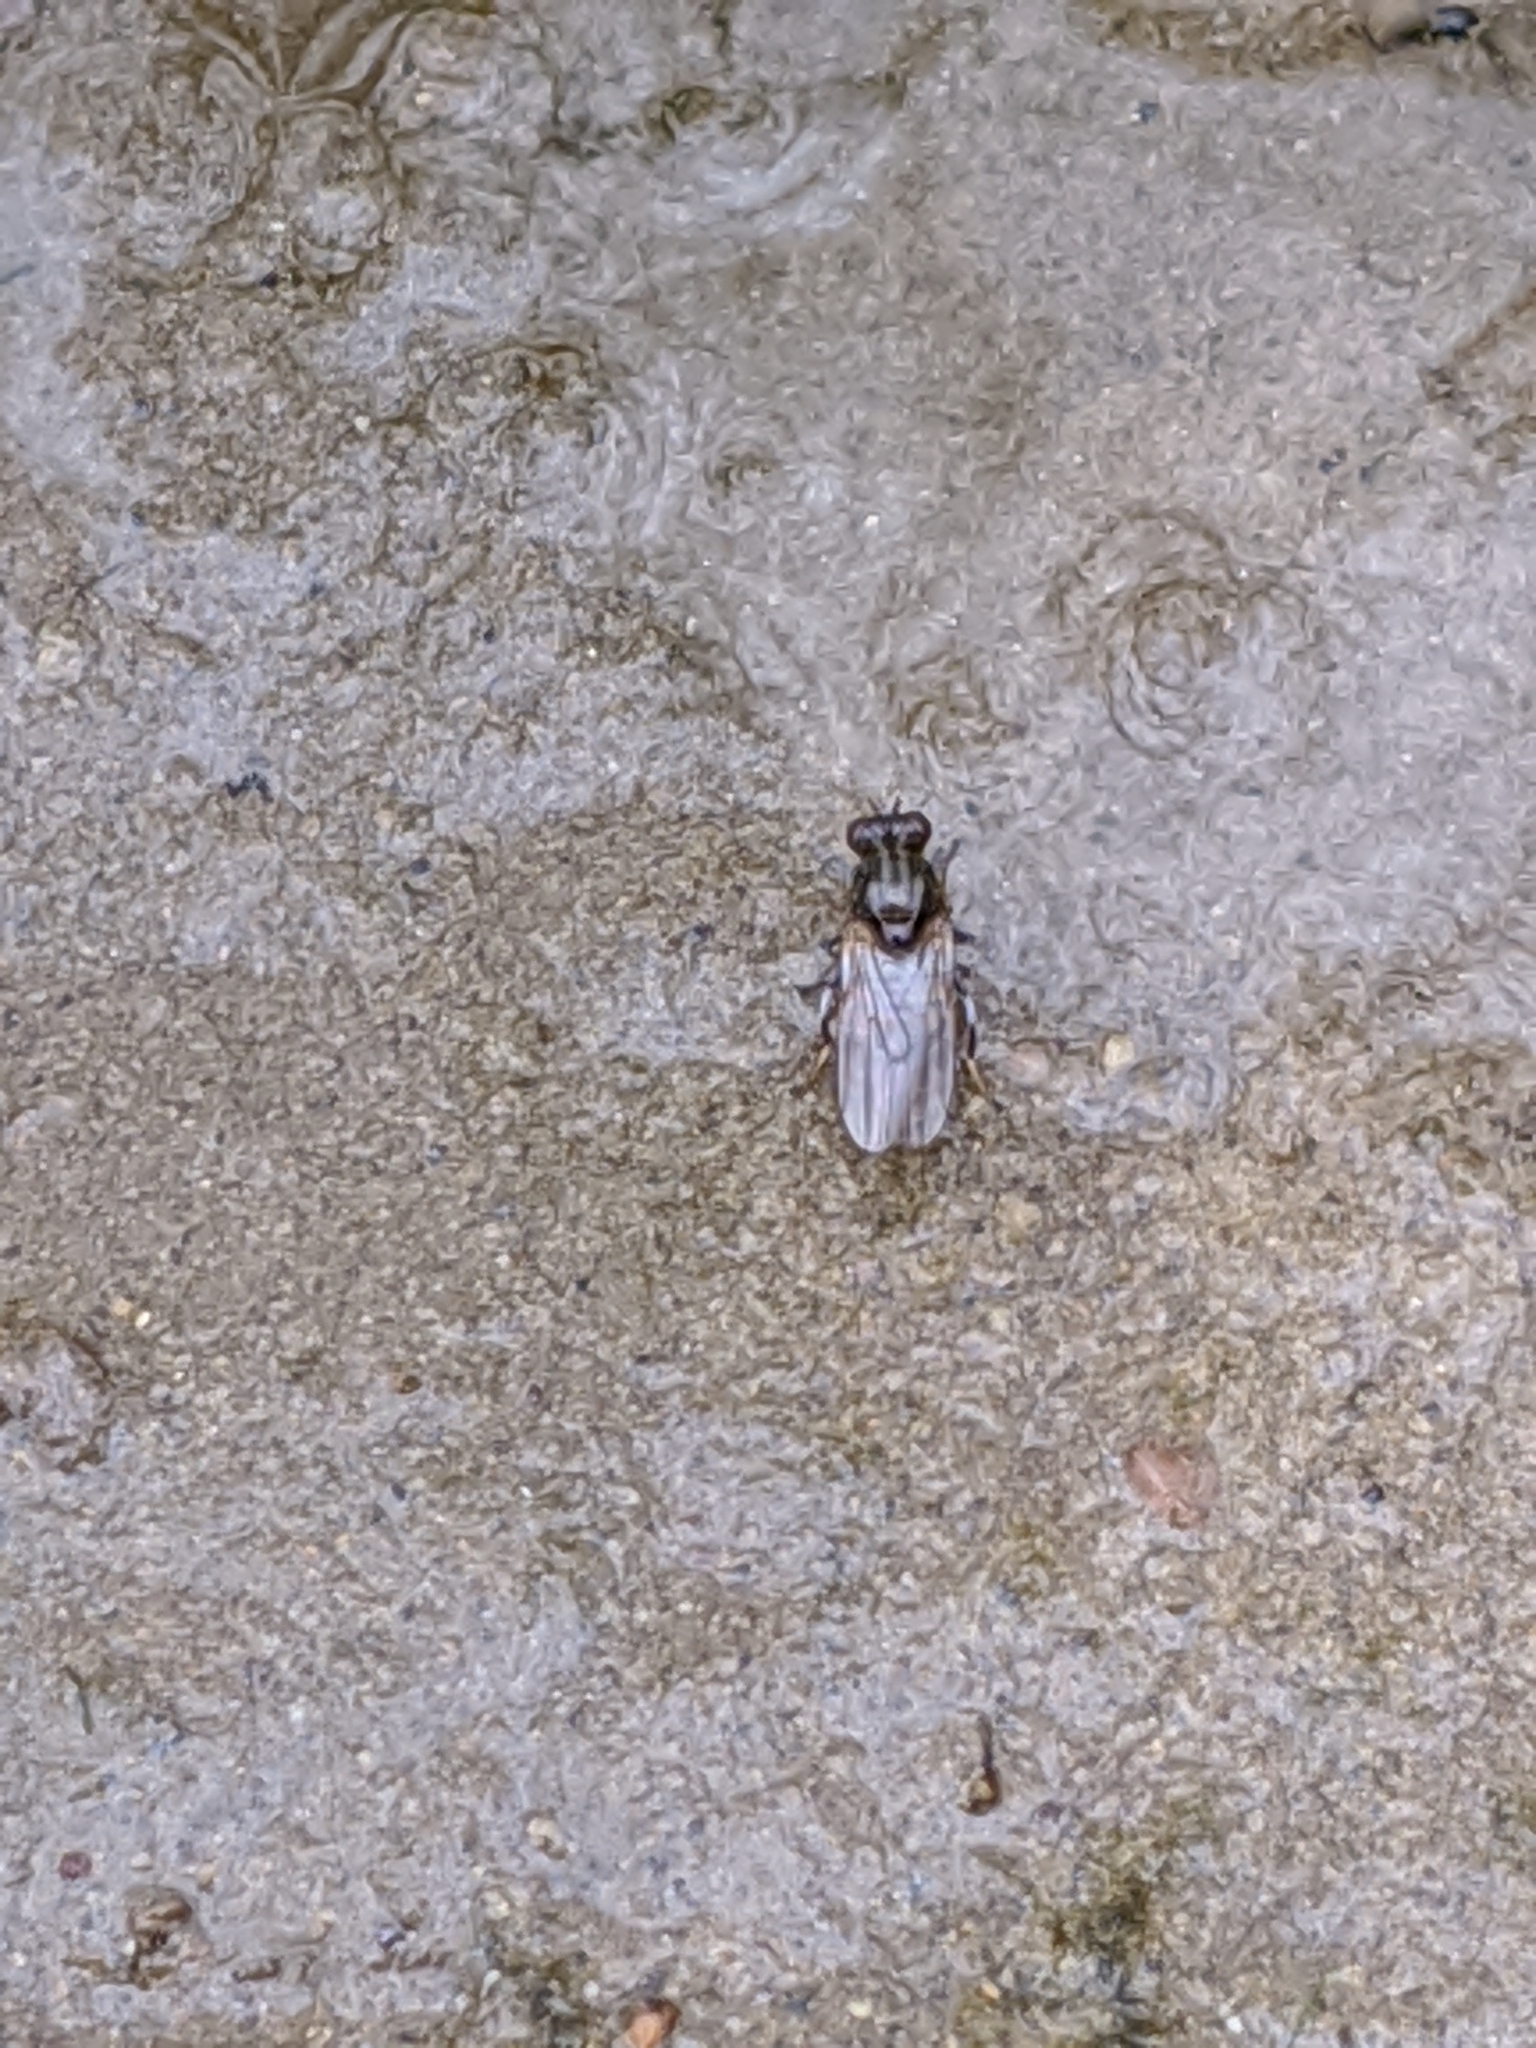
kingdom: Animalia
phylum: Arthropoda
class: Insecta
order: Diptera
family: Ephydridae
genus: Parydra
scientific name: Parydra
